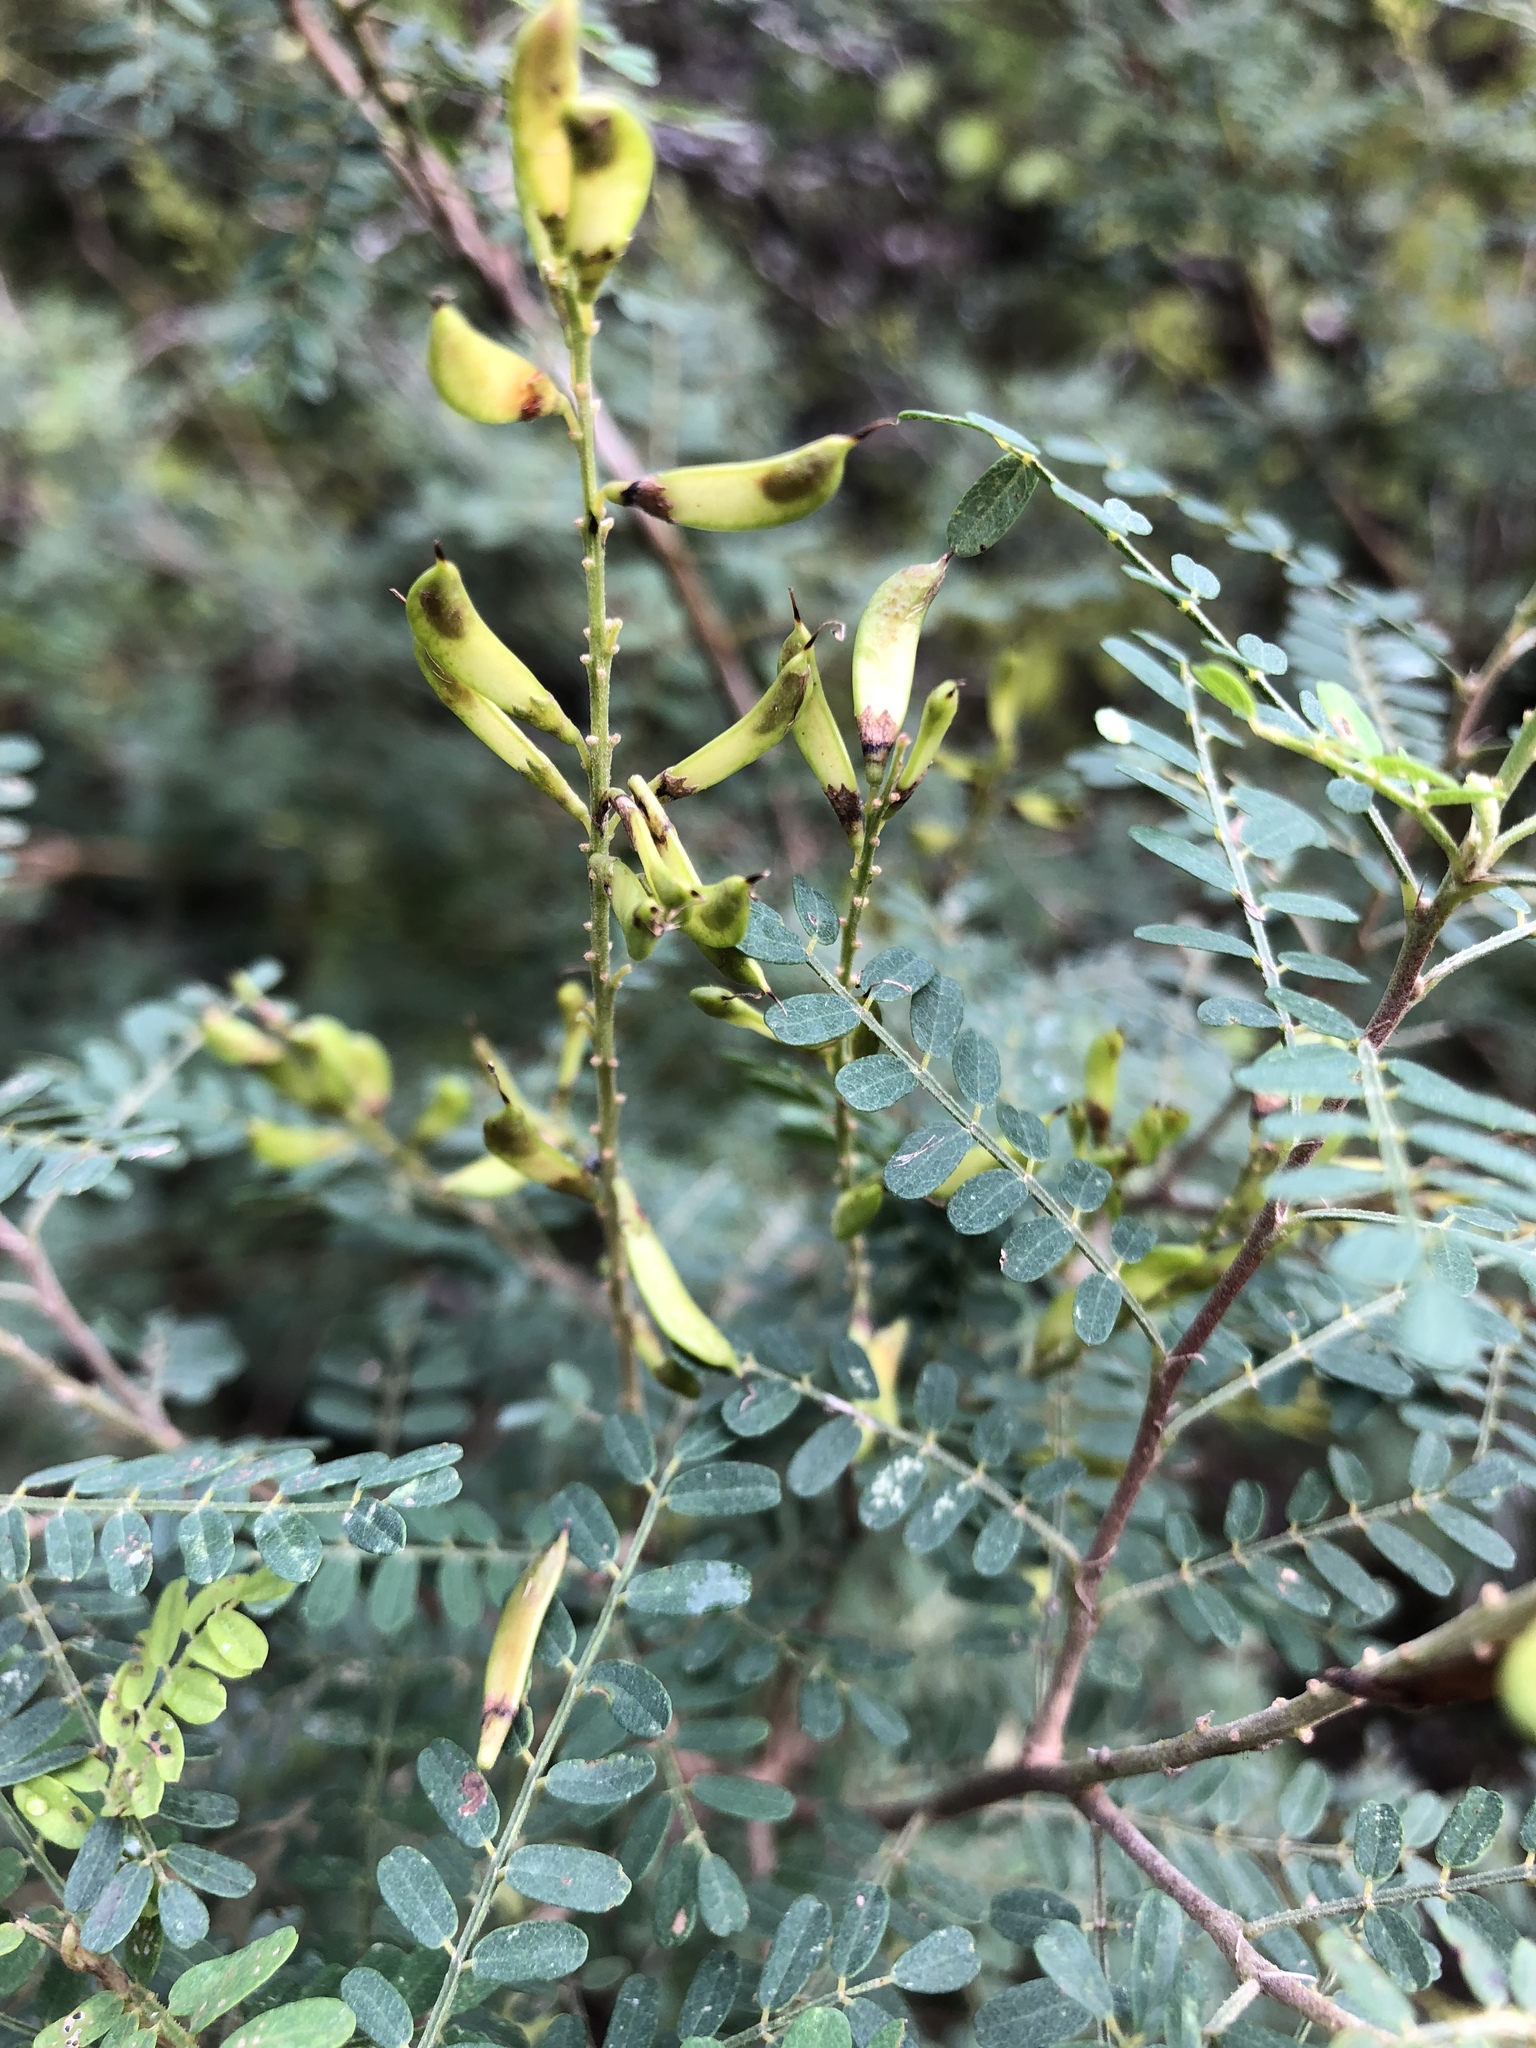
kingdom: Plantae
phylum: Tracheophyta
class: Magnoliopsida
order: Fabales
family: Fabaceae
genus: Eysenhardtia
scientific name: Eysenhardtia texana
